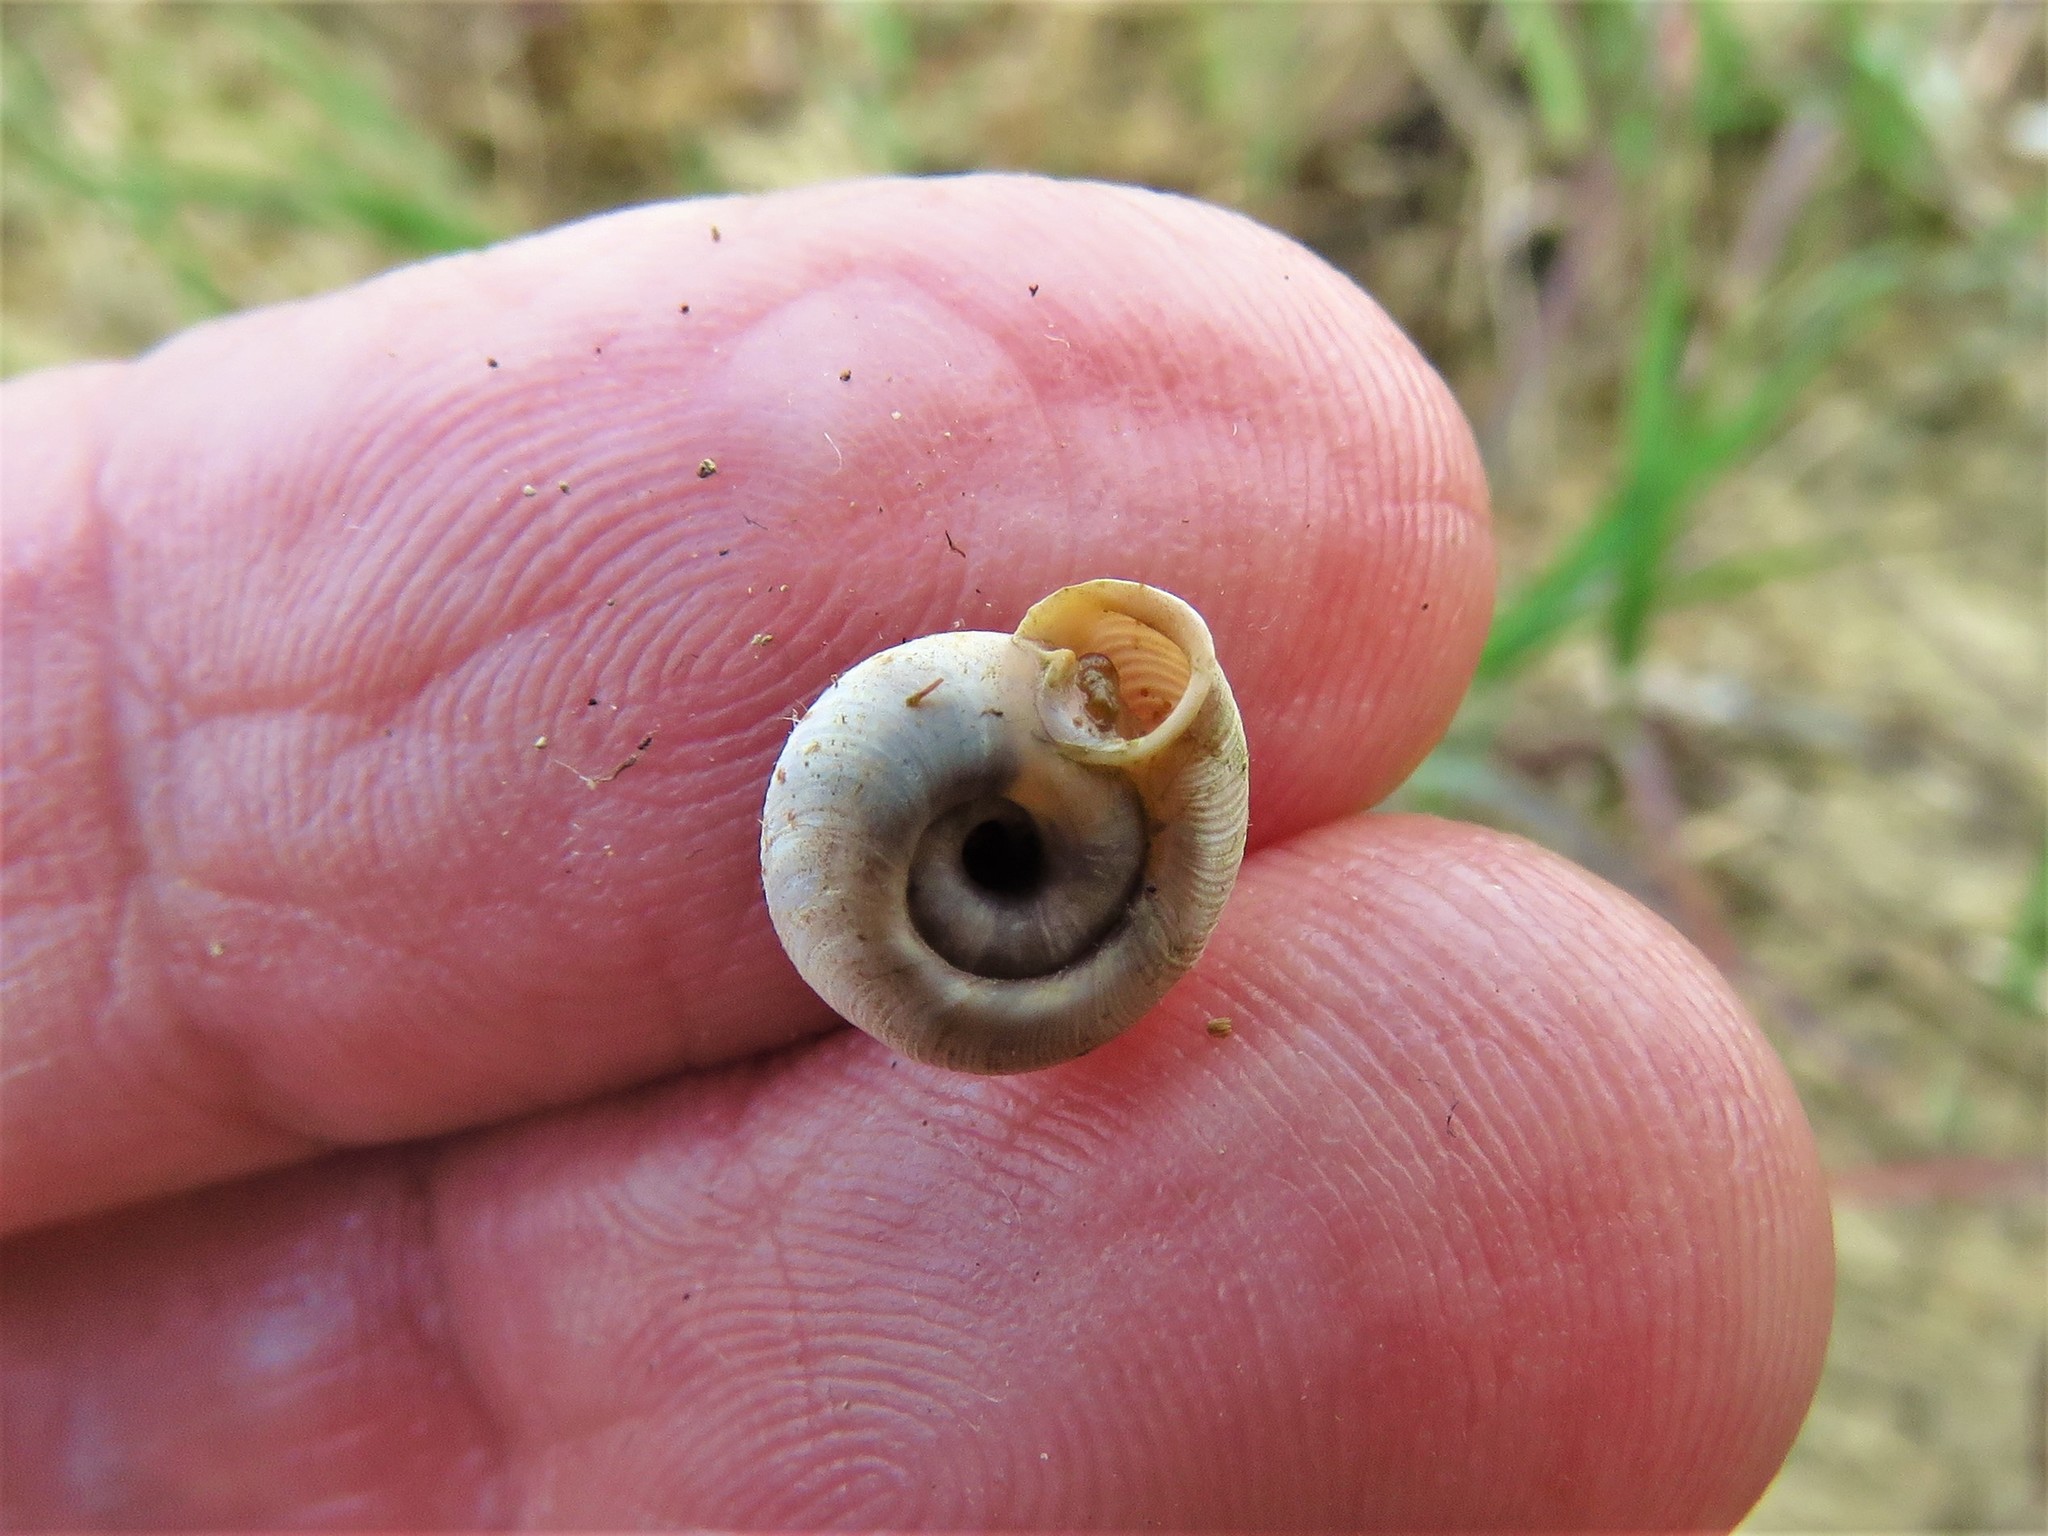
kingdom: Animalia
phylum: Mollusca
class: Gastropoda
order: Stylommatophora
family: Polygyridae
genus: Polygyra
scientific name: Polygyra cereolus
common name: Southern flatcone snail
